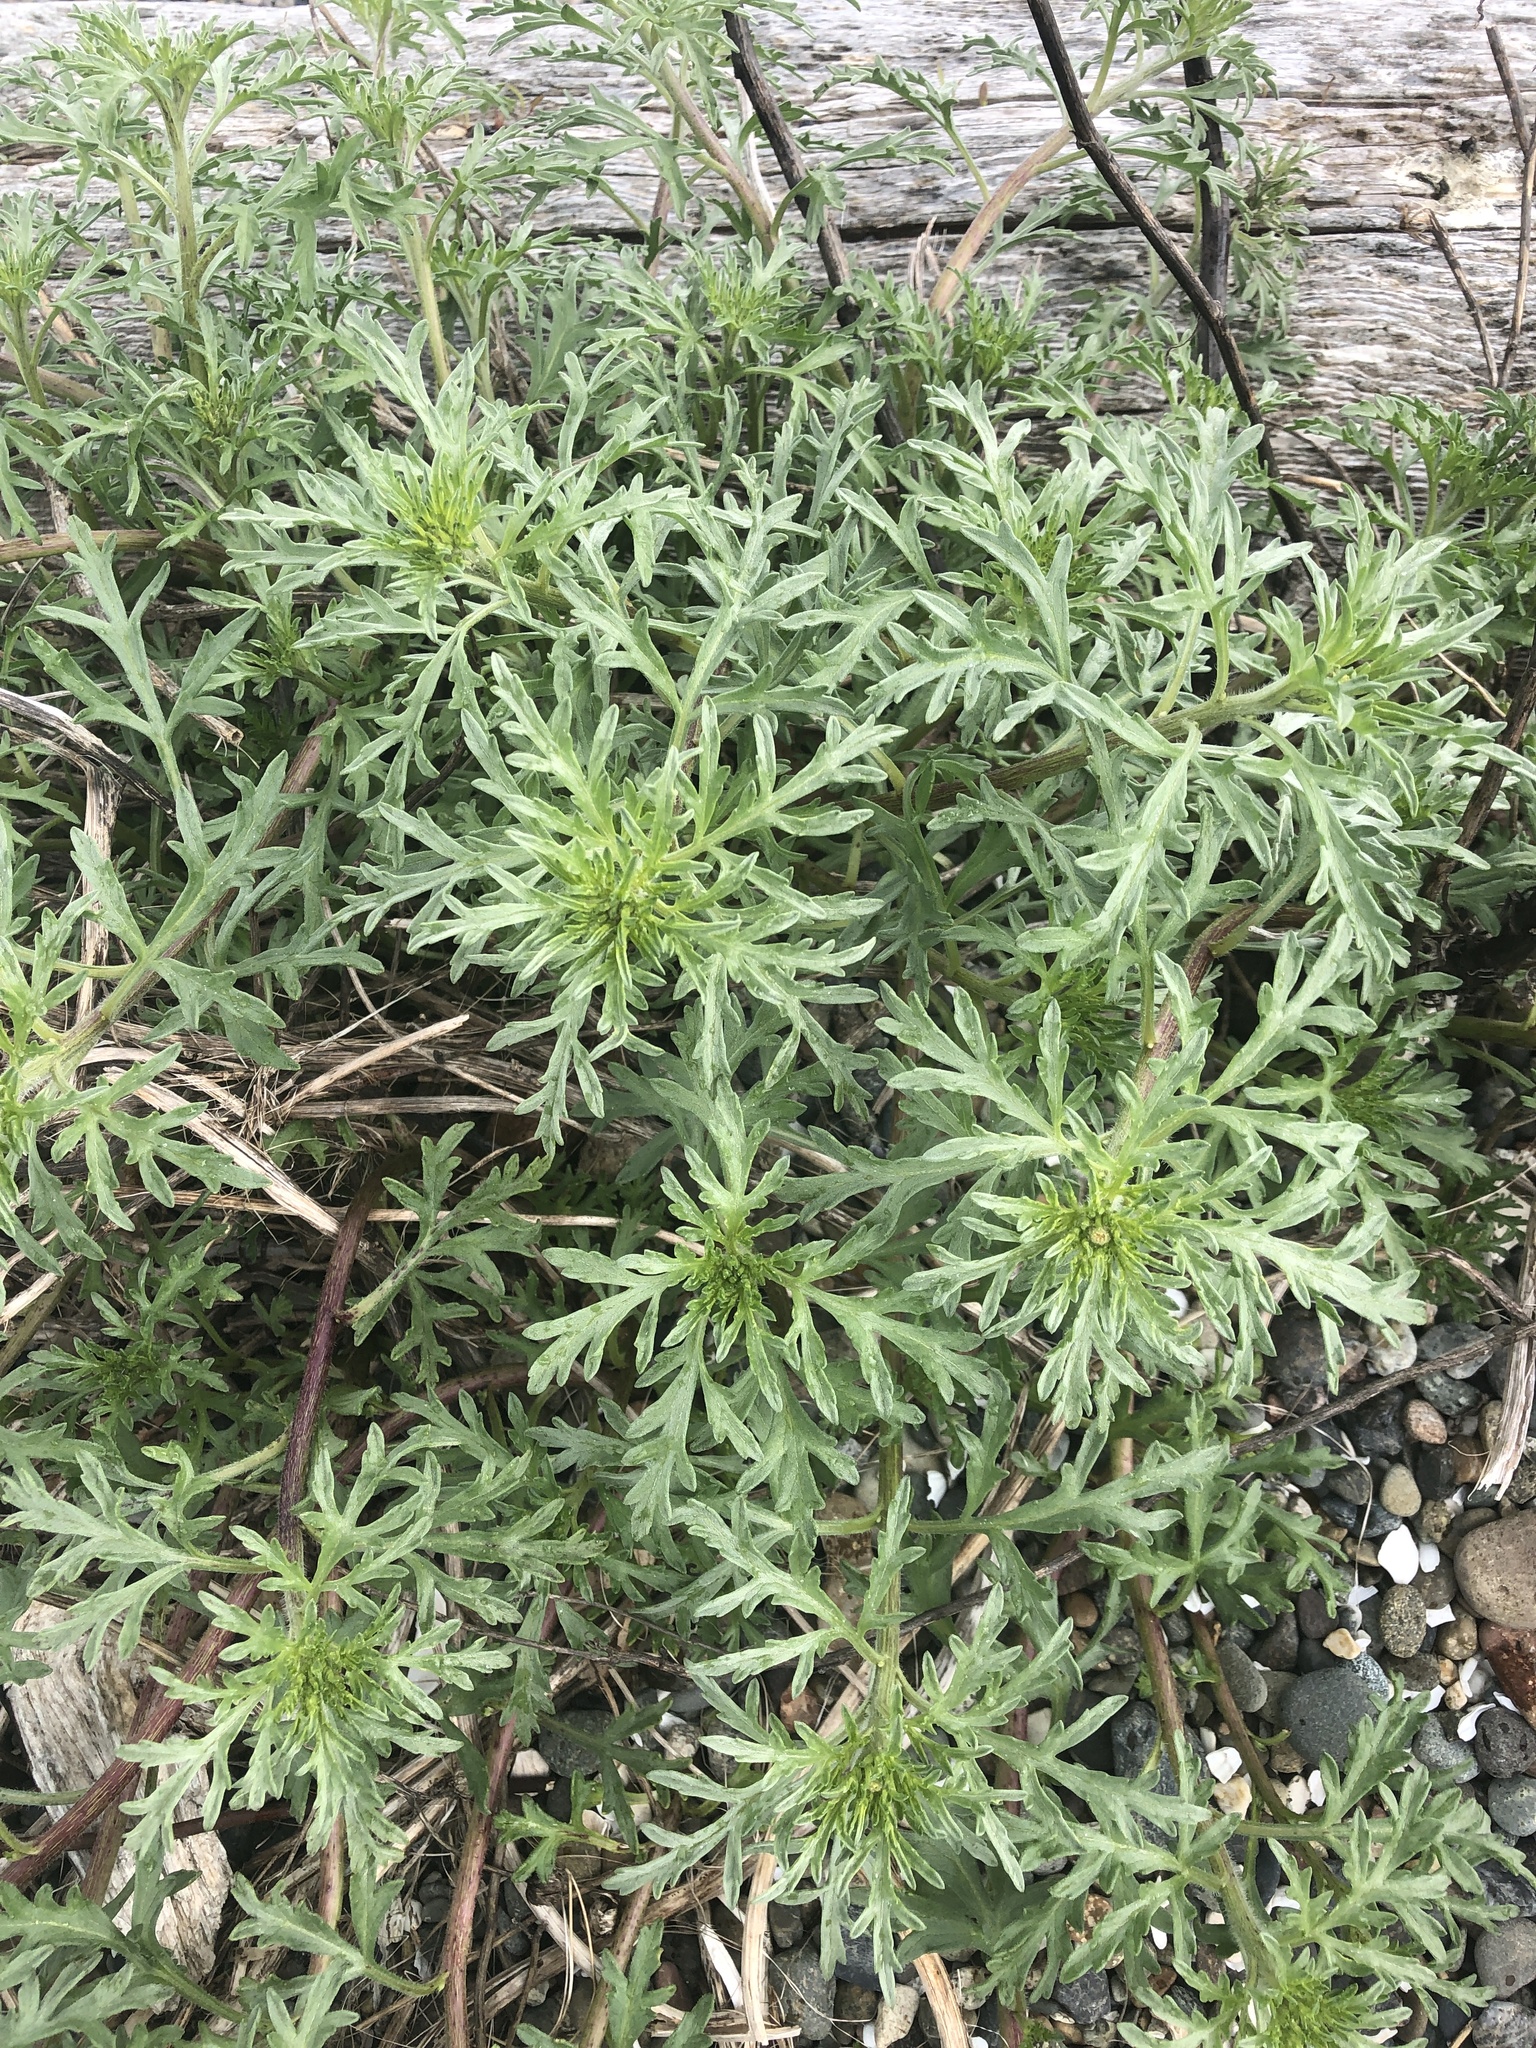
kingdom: Plantae
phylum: Tracheophyta
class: Magnoliopsida
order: Asterales
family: Asteraceae
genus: Ambrosia
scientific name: Ambrosia chamissonis
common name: Beachbur
